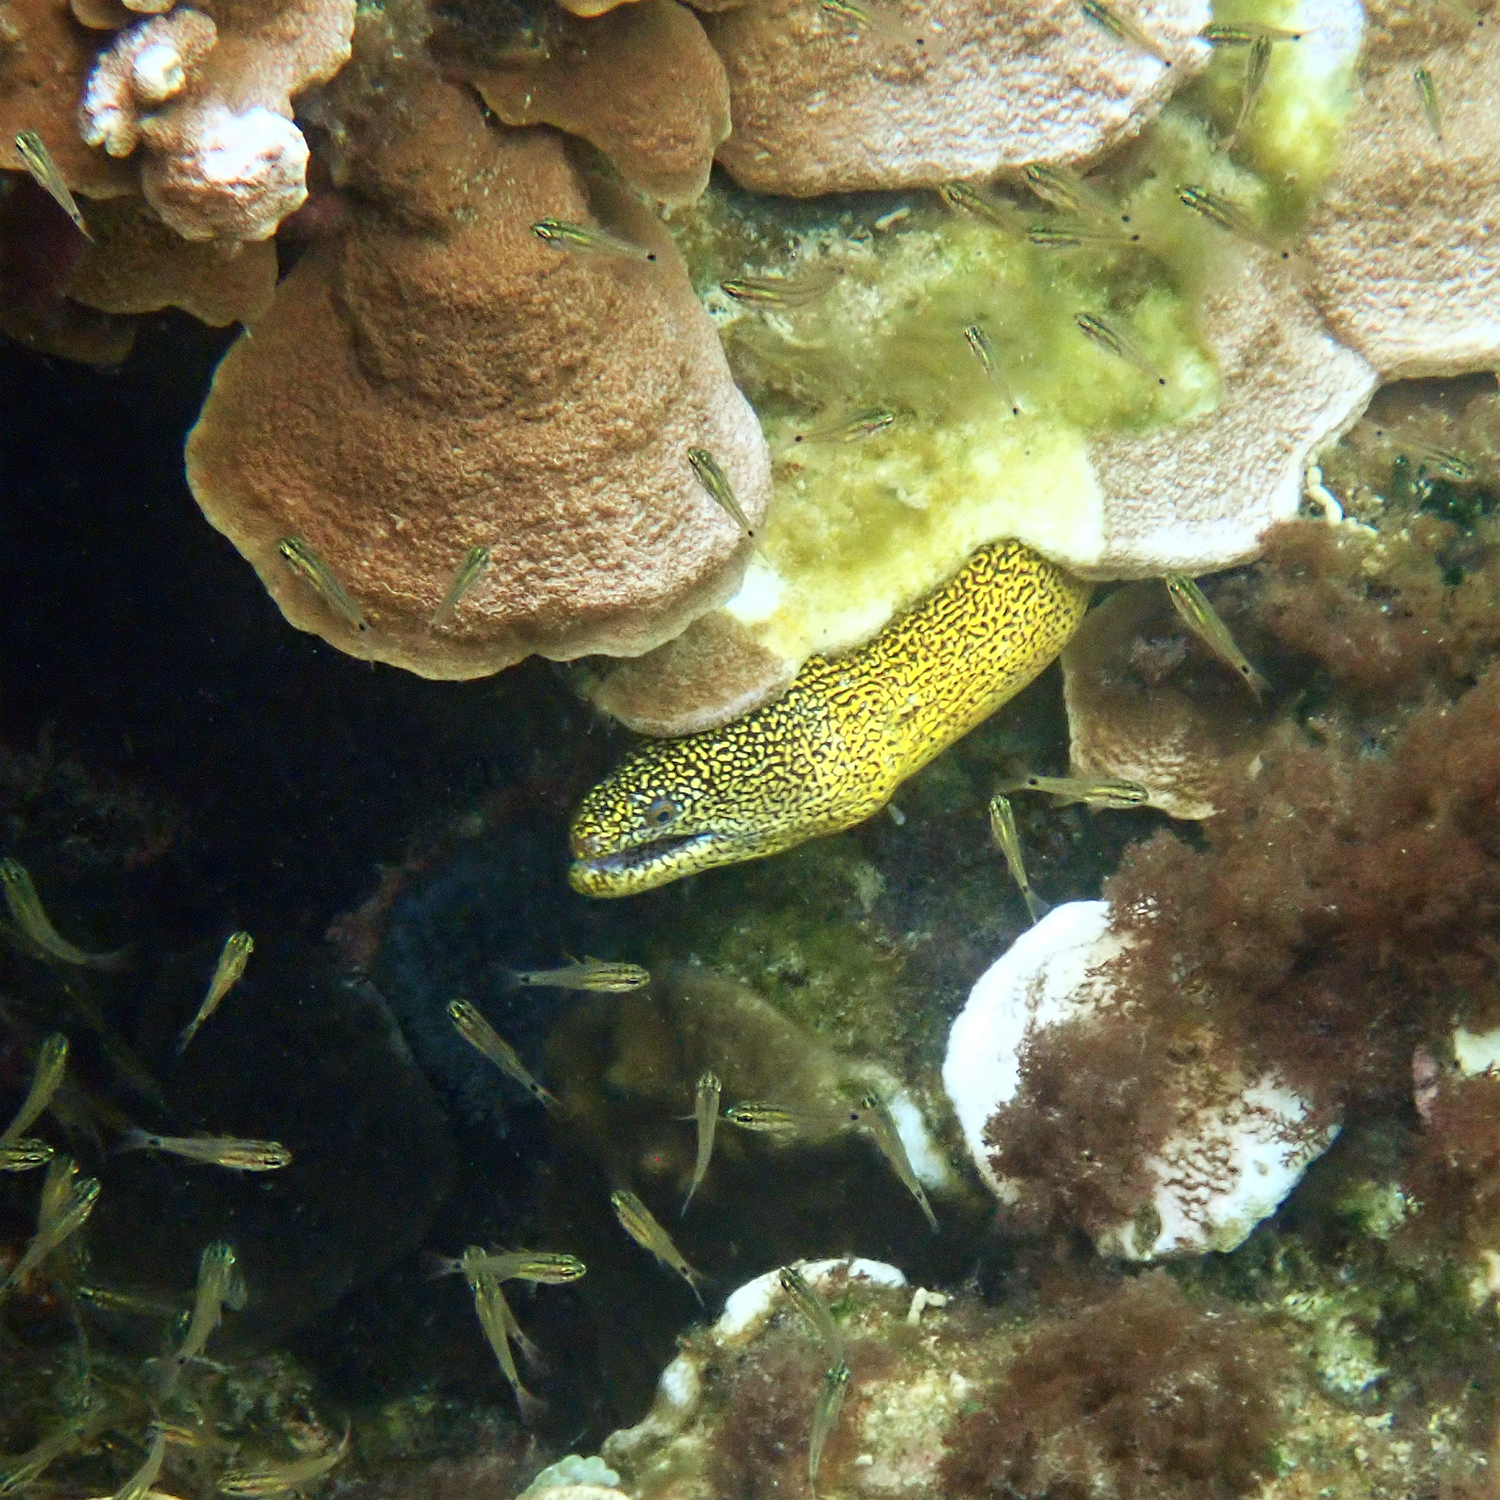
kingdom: Animalia
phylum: Chordata
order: Anguilliformes
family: Muraenidae
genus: Gymnothorax
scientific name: Gymnothorax eurostus
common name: Stout moray
